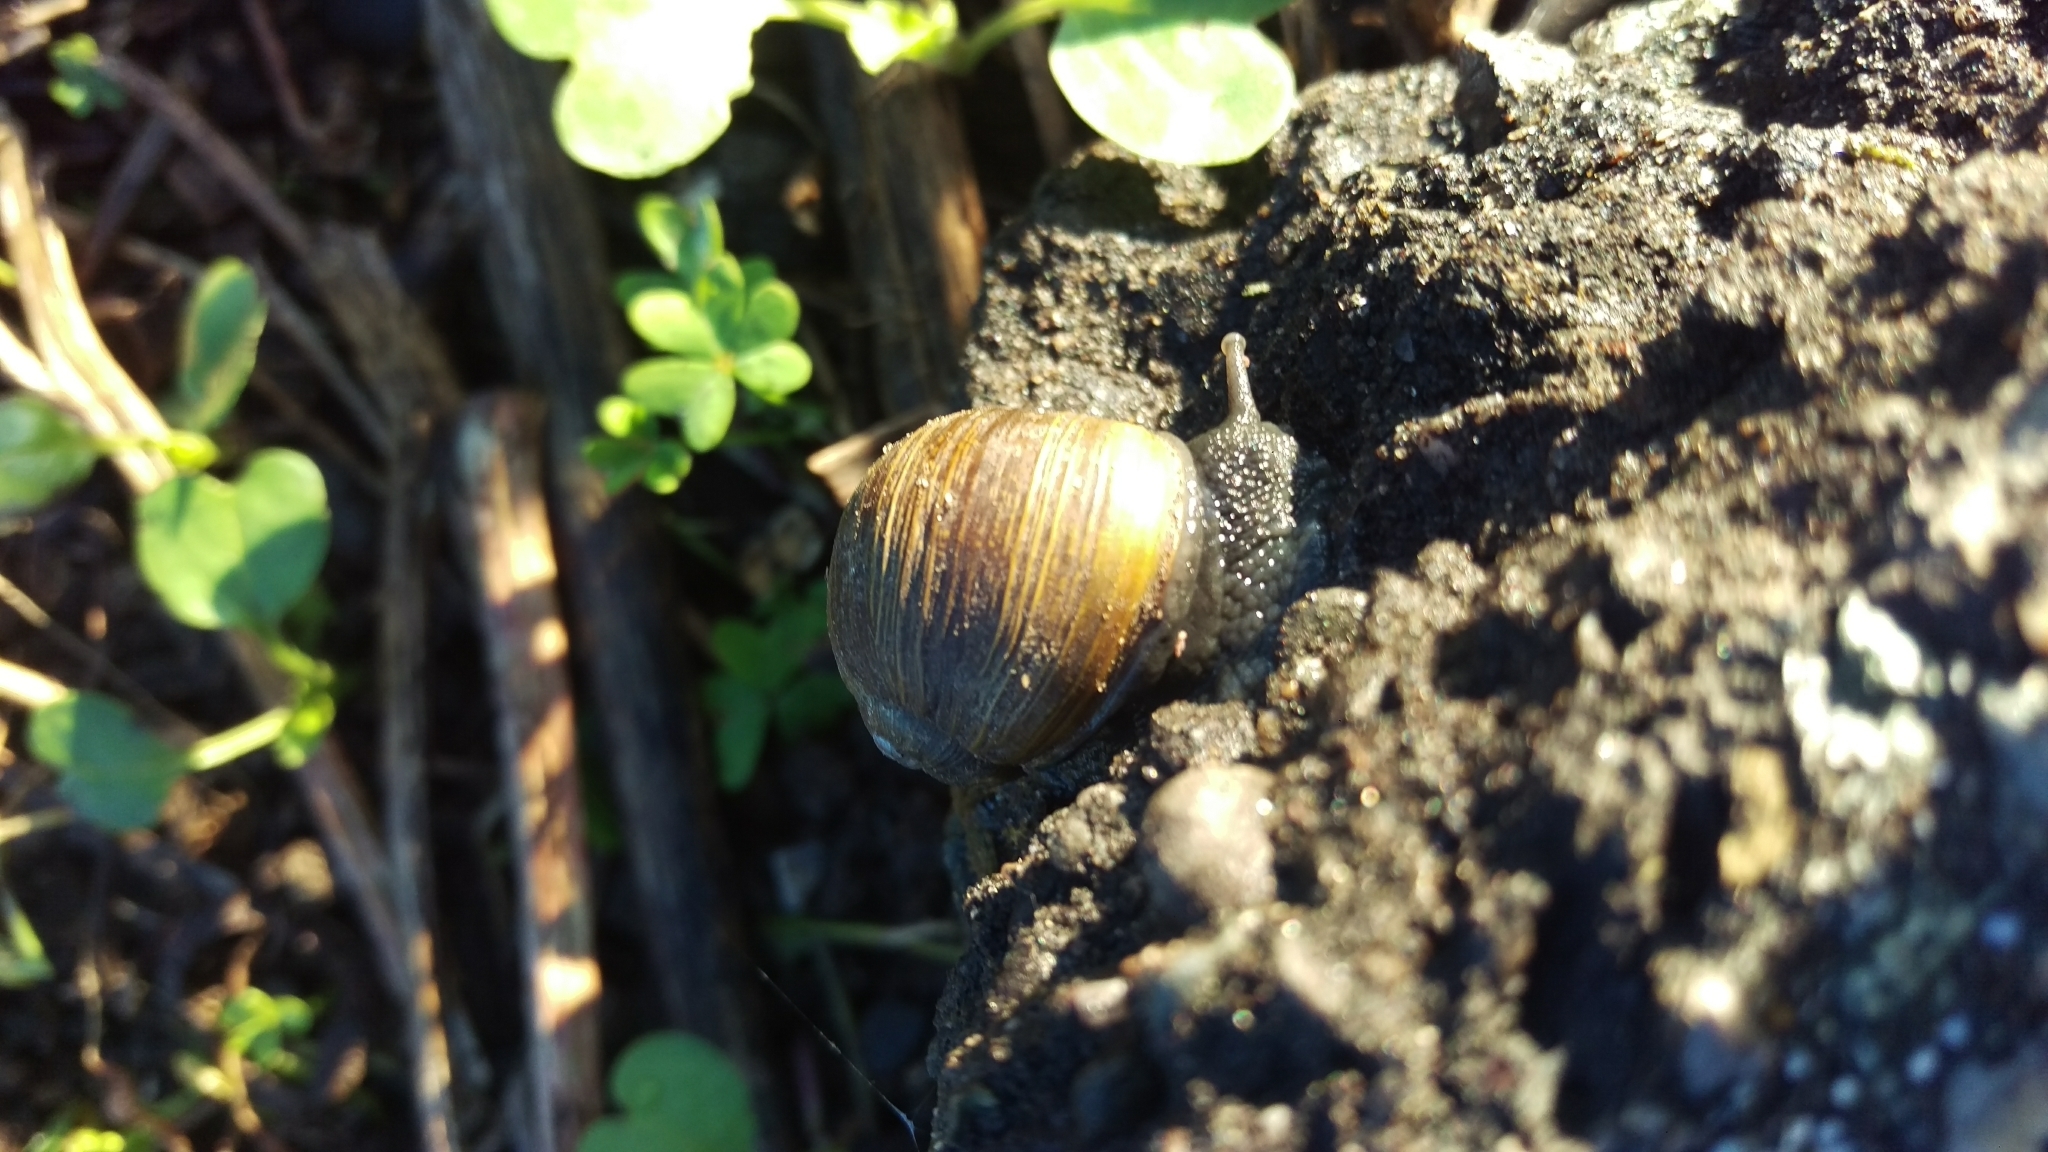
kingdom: Animalia
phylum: Mollusca
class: Gastropoda
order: Stylommatophora
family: Helicidae
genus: Cantareus
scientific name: Cantareus apertus
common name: Green gardensnail
